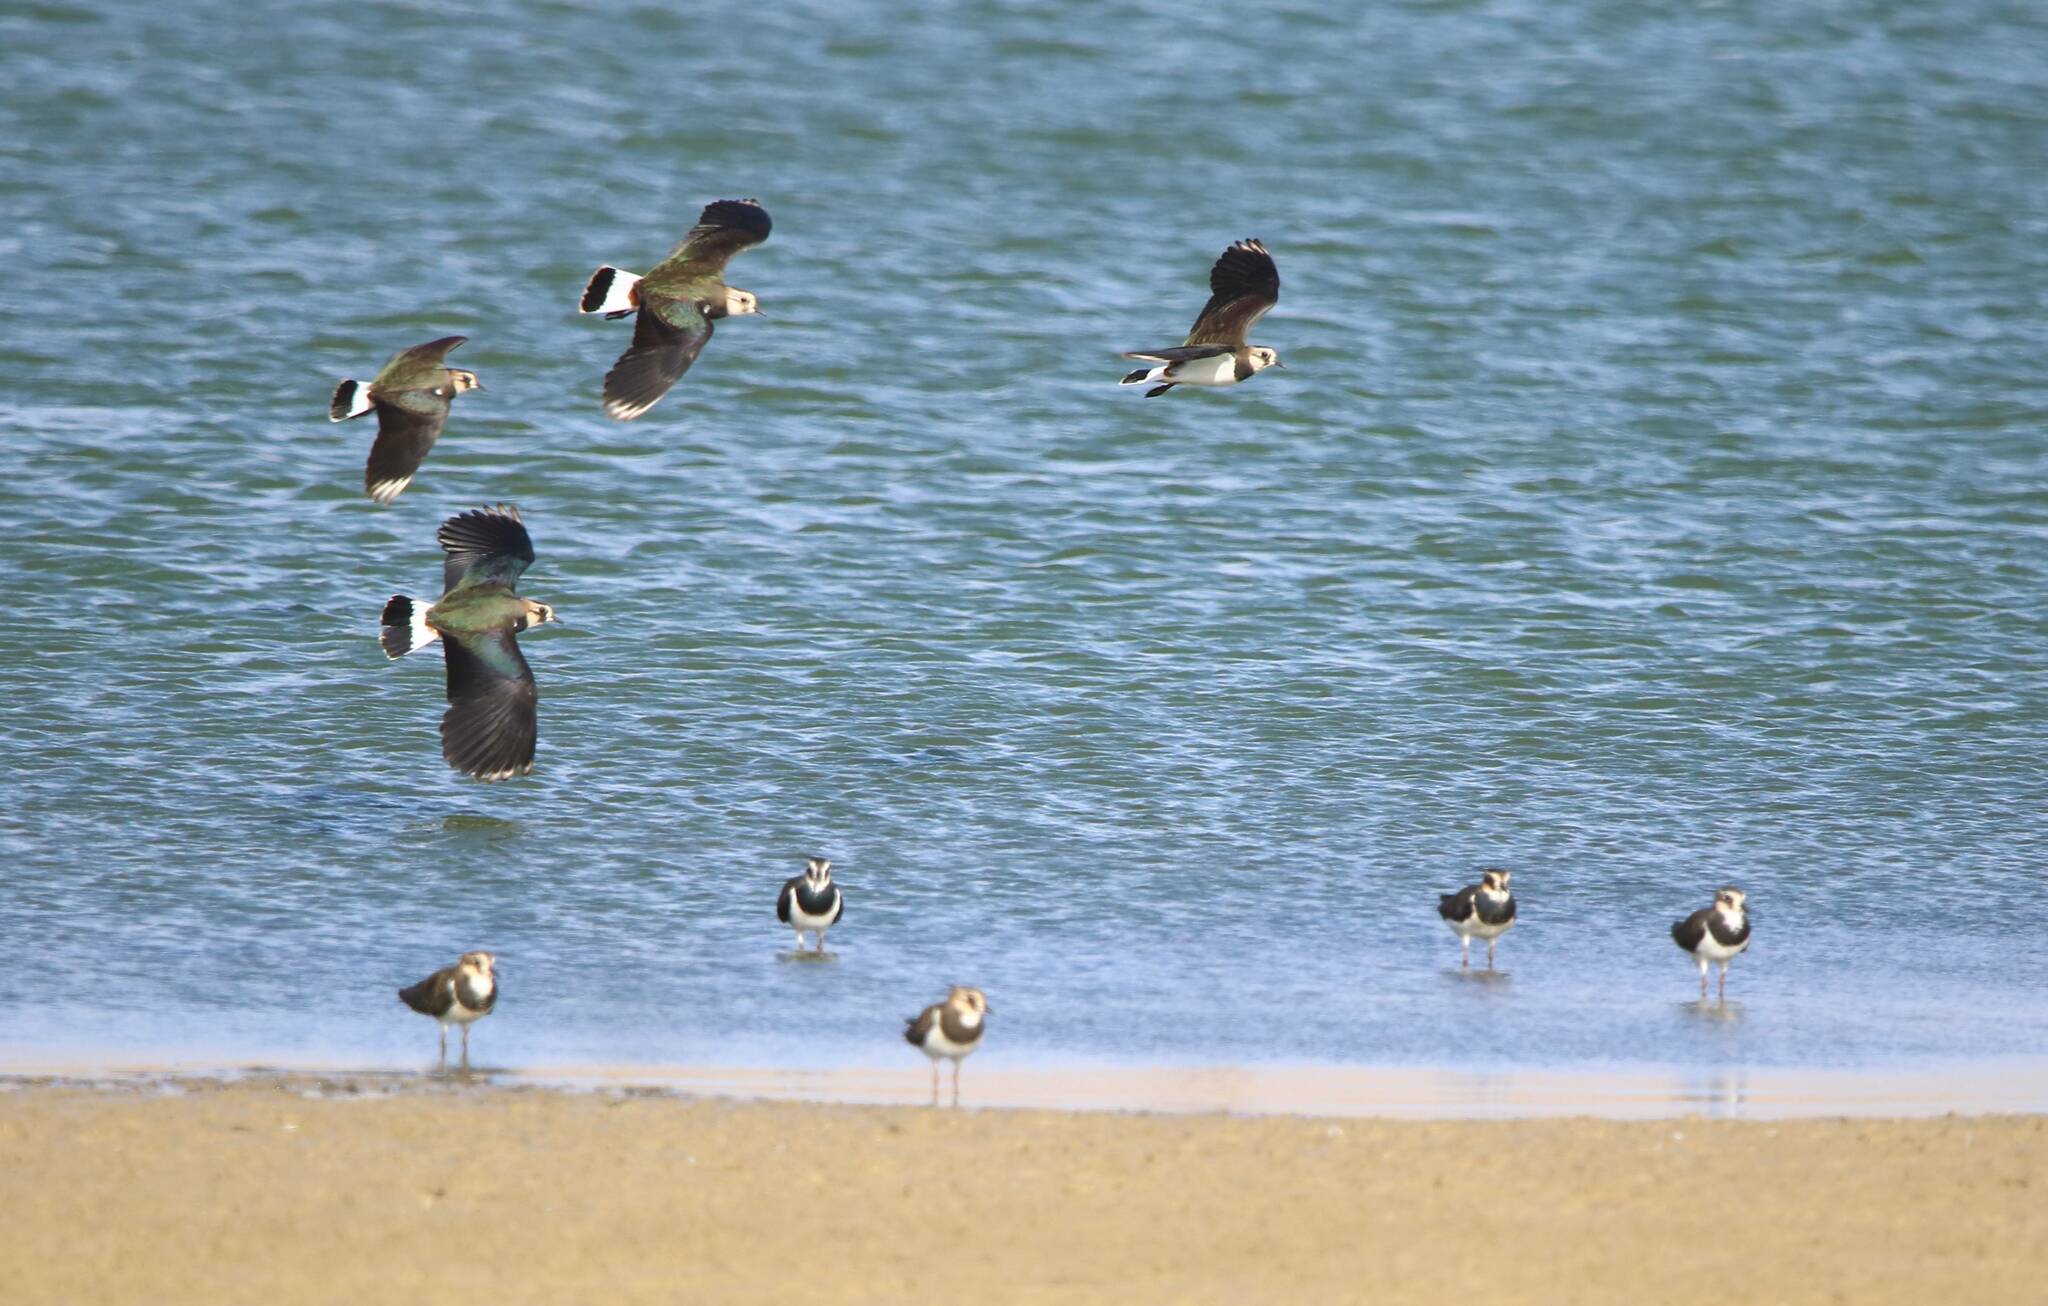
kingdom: Animalia
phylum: Chordata
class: Aves
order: Charadriiformes
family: Charadriidae
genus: Vanellus
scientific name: Vanellus vanellus
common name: Northern lapwing
